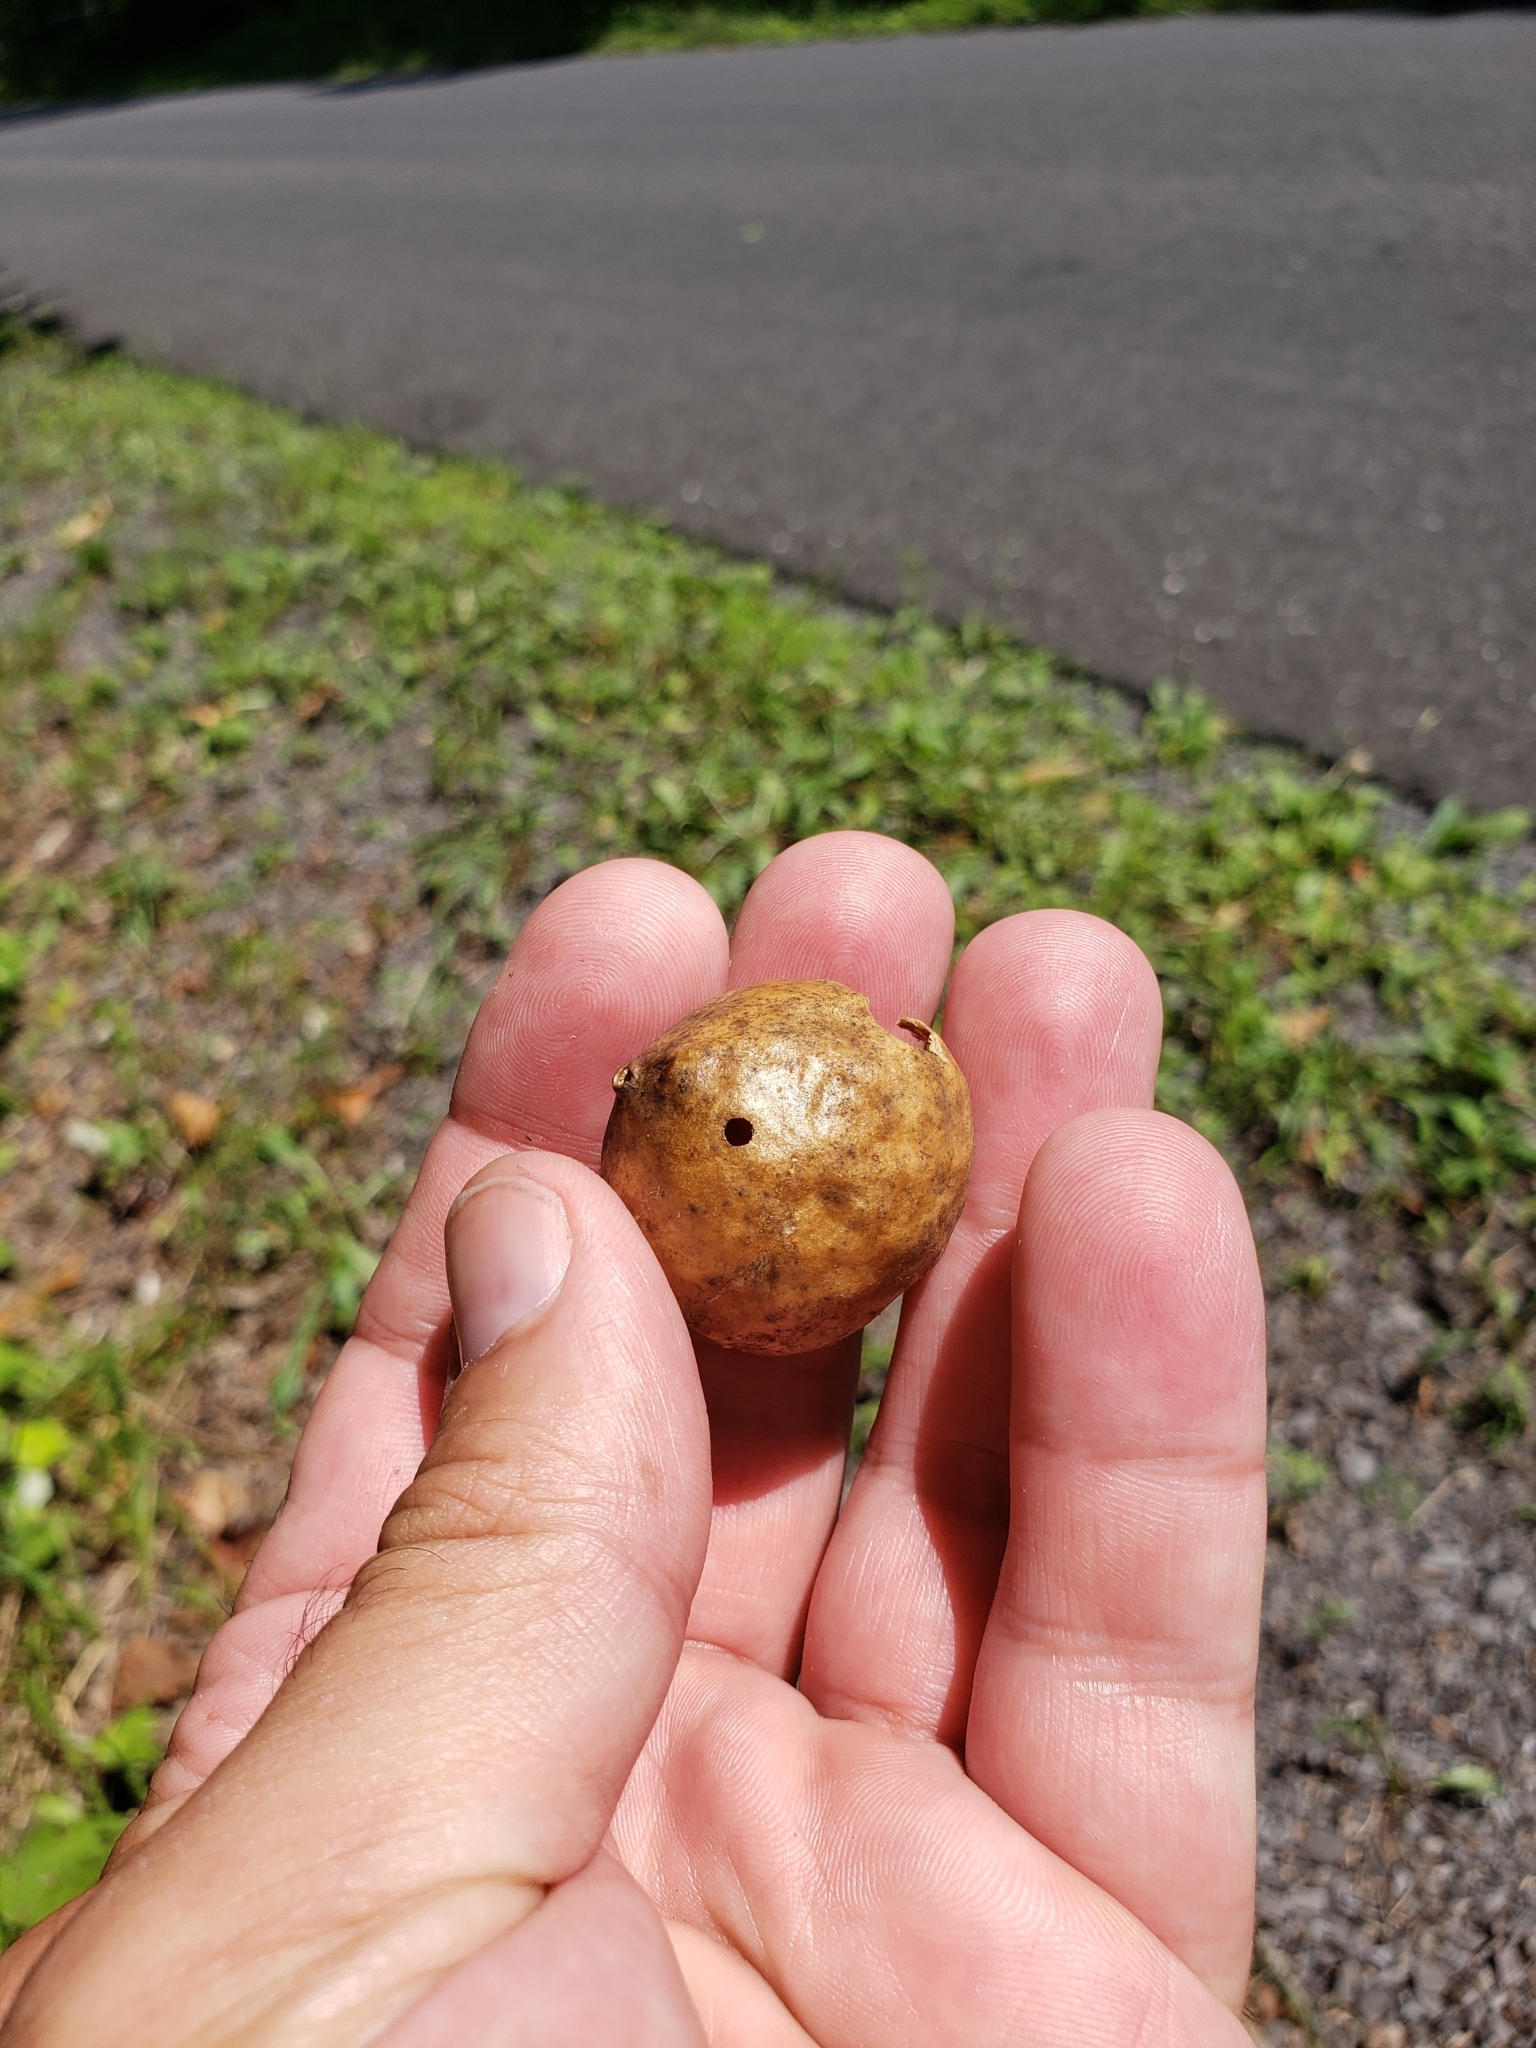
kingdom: Animalia
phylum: Arthropoda
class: Insecta
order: Hymenoptera
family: Cynipidae
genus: Amphibolips
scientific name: Amphibolips
